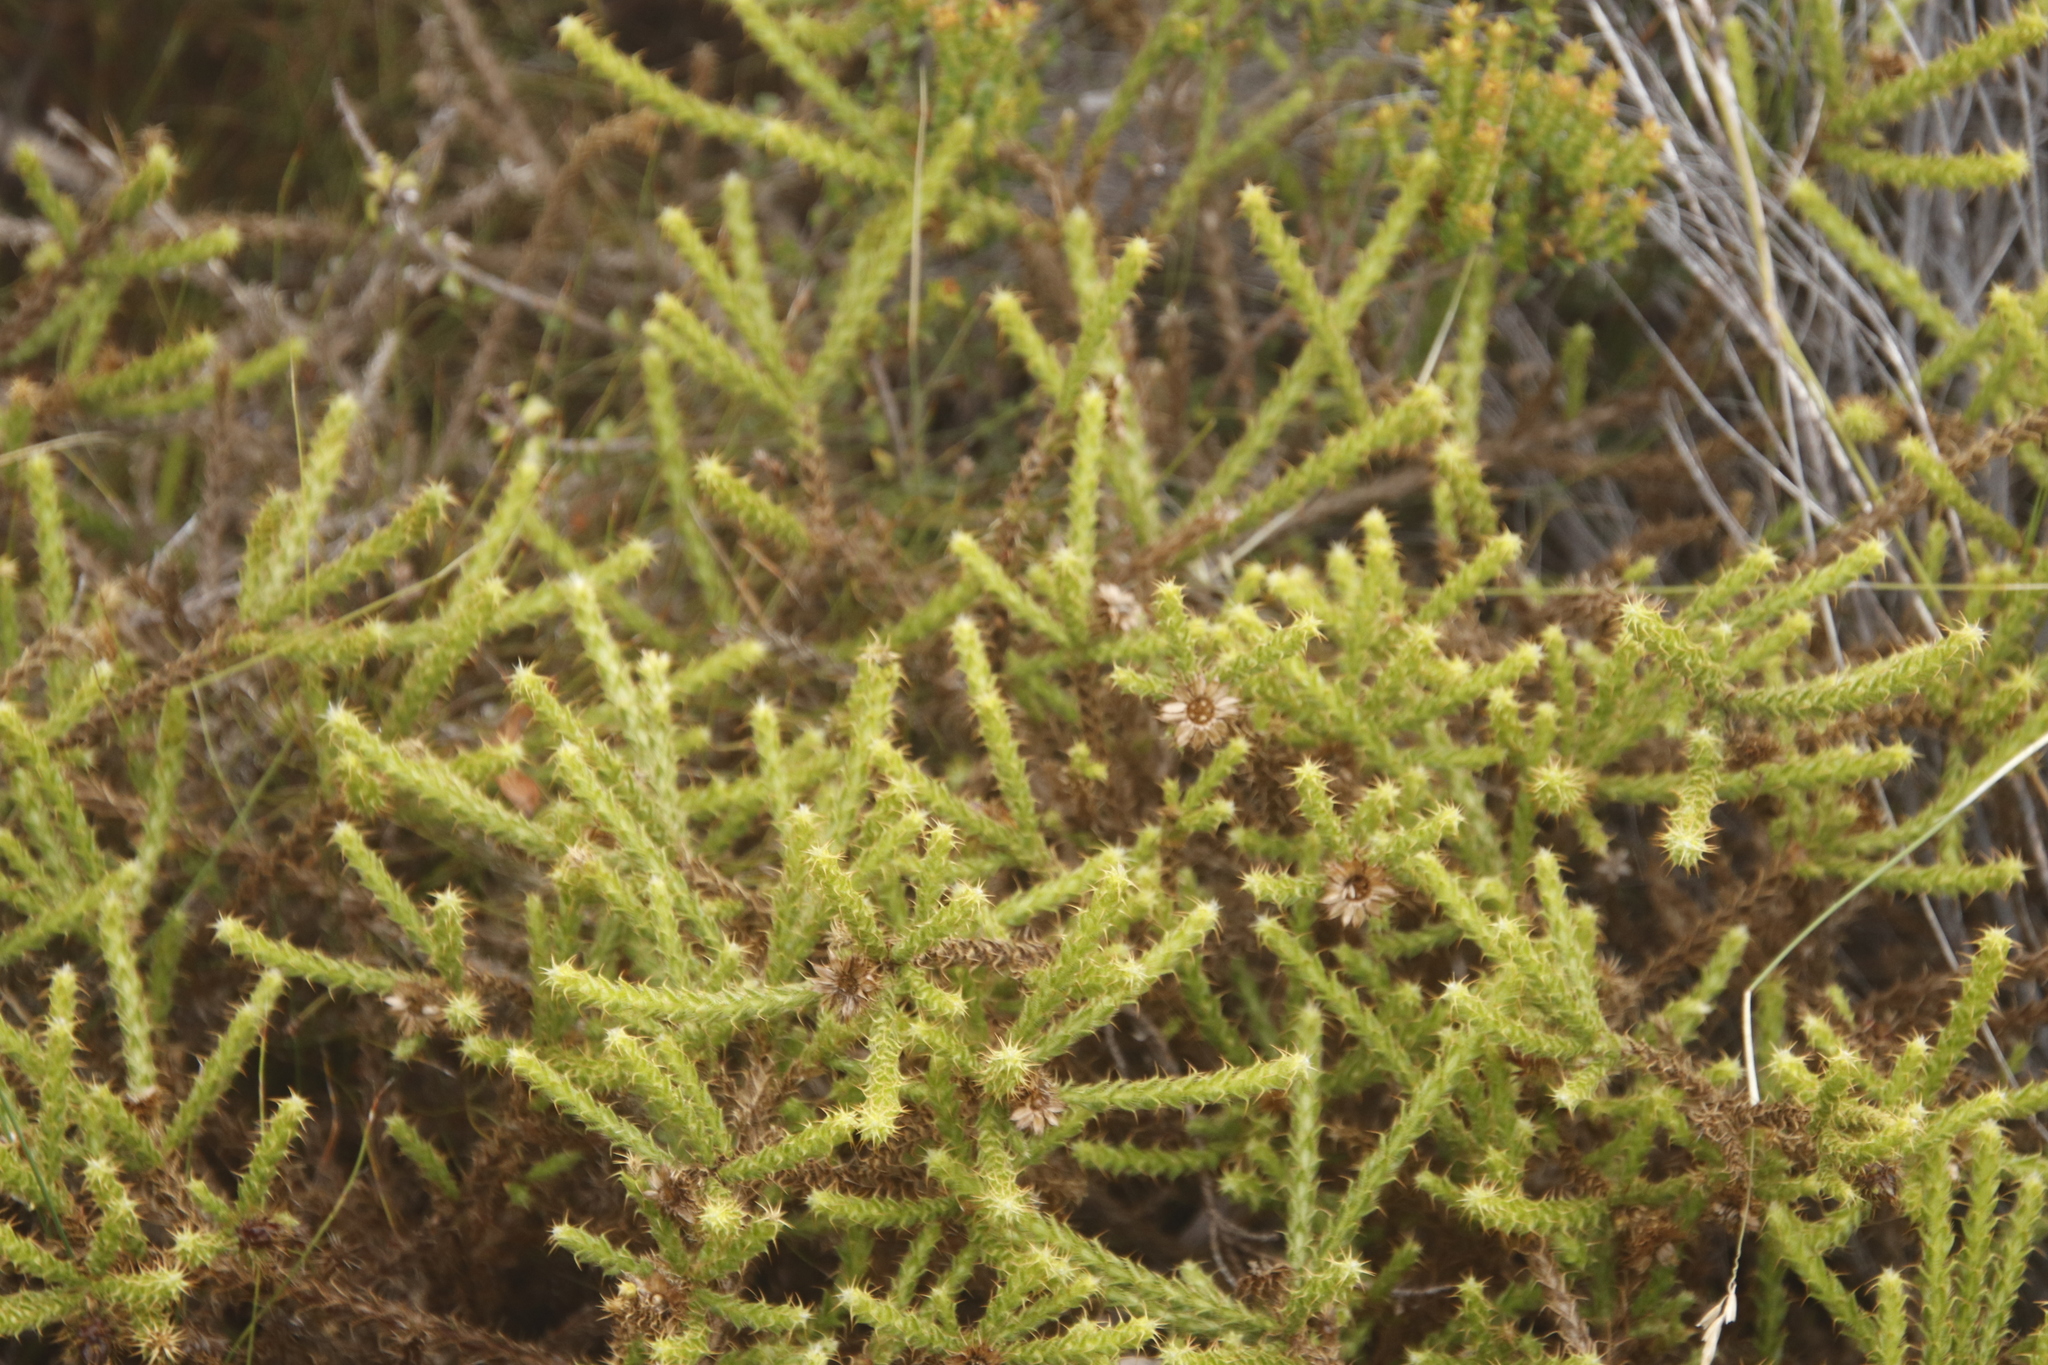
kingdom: Plantae
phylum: Tracheophyta
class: Magnoliopsida
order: Asterales
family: Asteraceae
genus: Cullumia
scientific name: Cullumia reticulata
